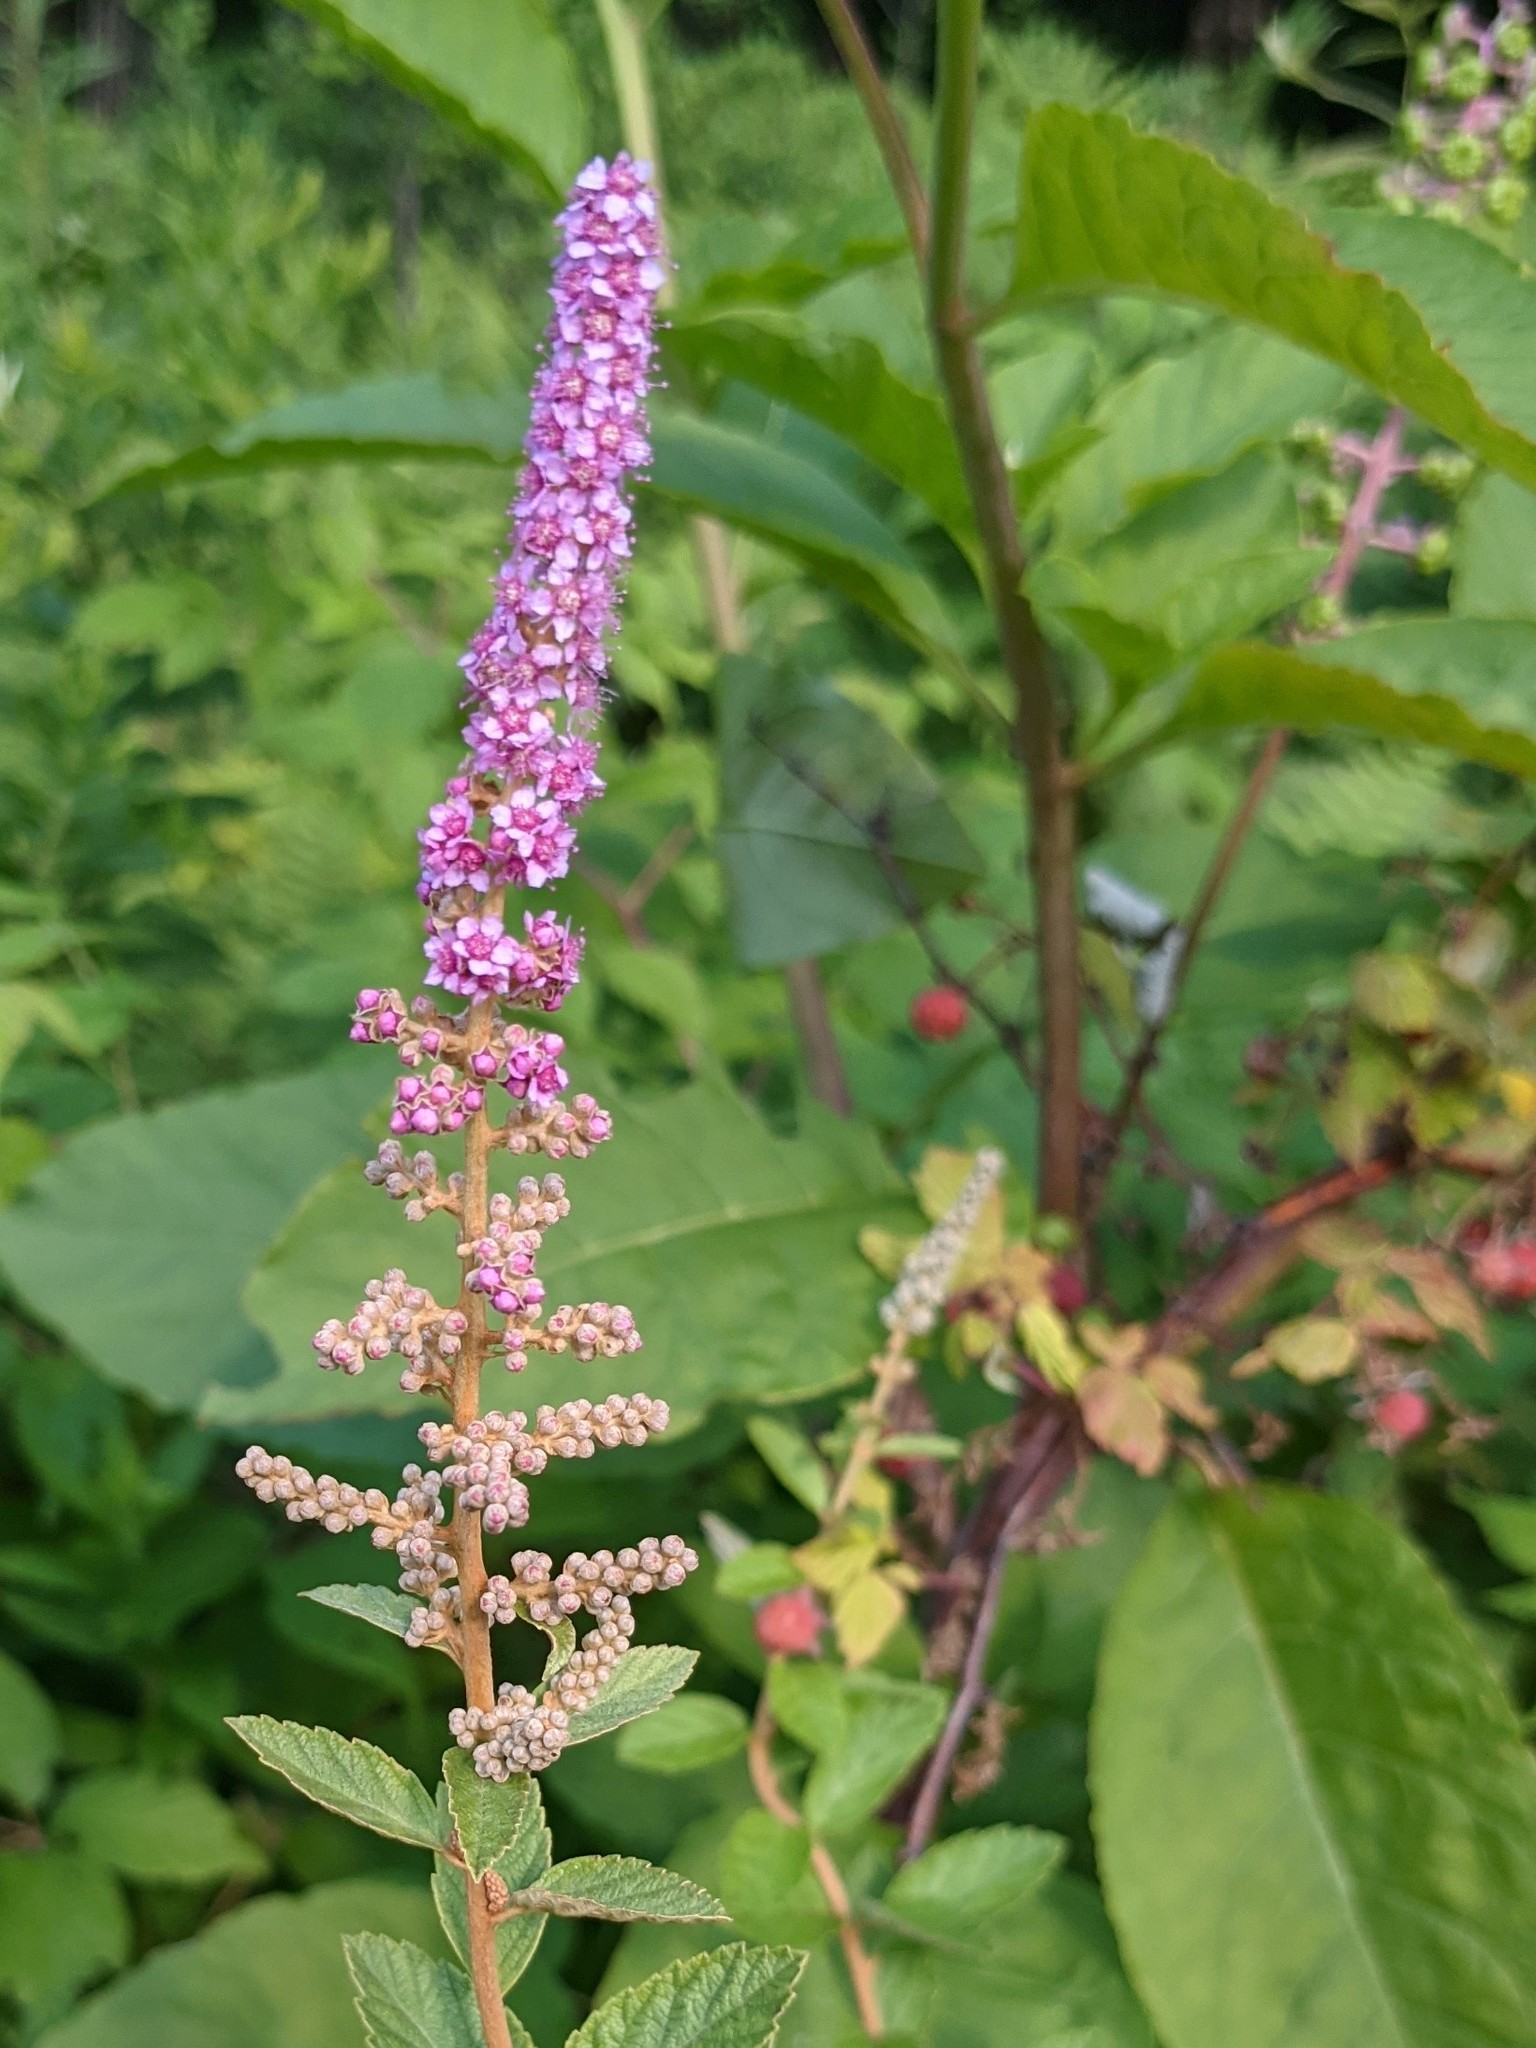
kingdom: Plantae
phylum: Tracheophyta
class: Magnoliopsida
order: Rosales
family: Rosaceae
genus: Spiraea
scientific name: Spiraea tomentosa
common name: Hardhack
